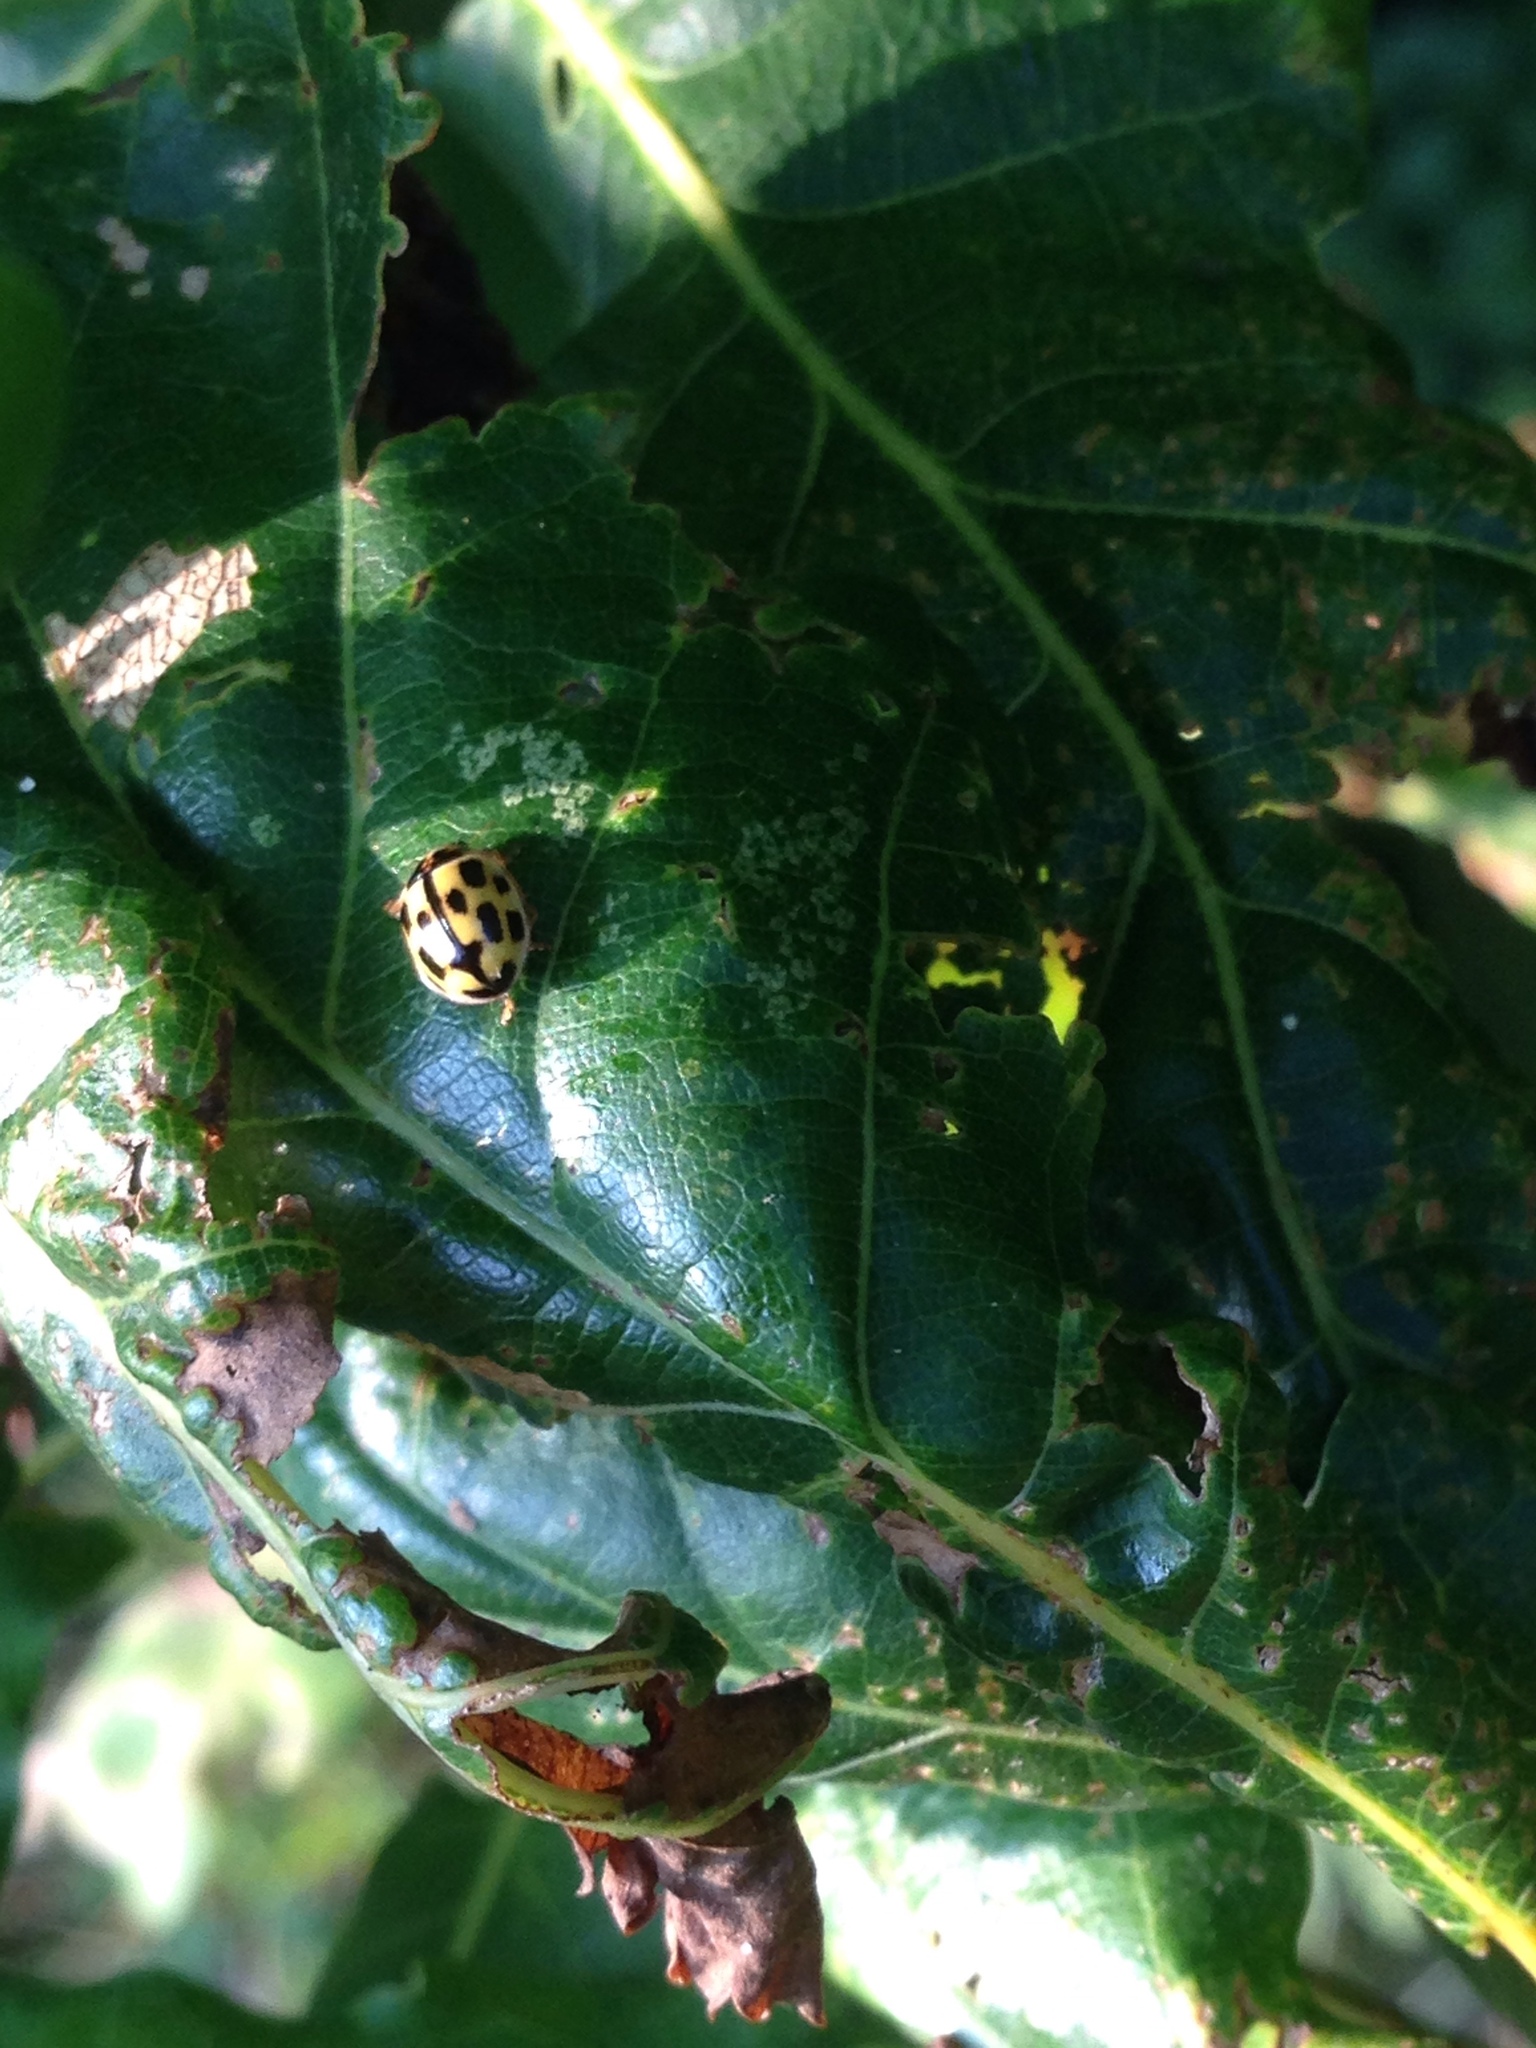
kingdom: Animalia
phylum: Arthropoda
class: Insecta
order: Coleoptera
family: Coccinellidae
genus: Propylaea
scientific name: Propylaea quatuordecimpunctata
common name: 14-spotted ladybird beetle
